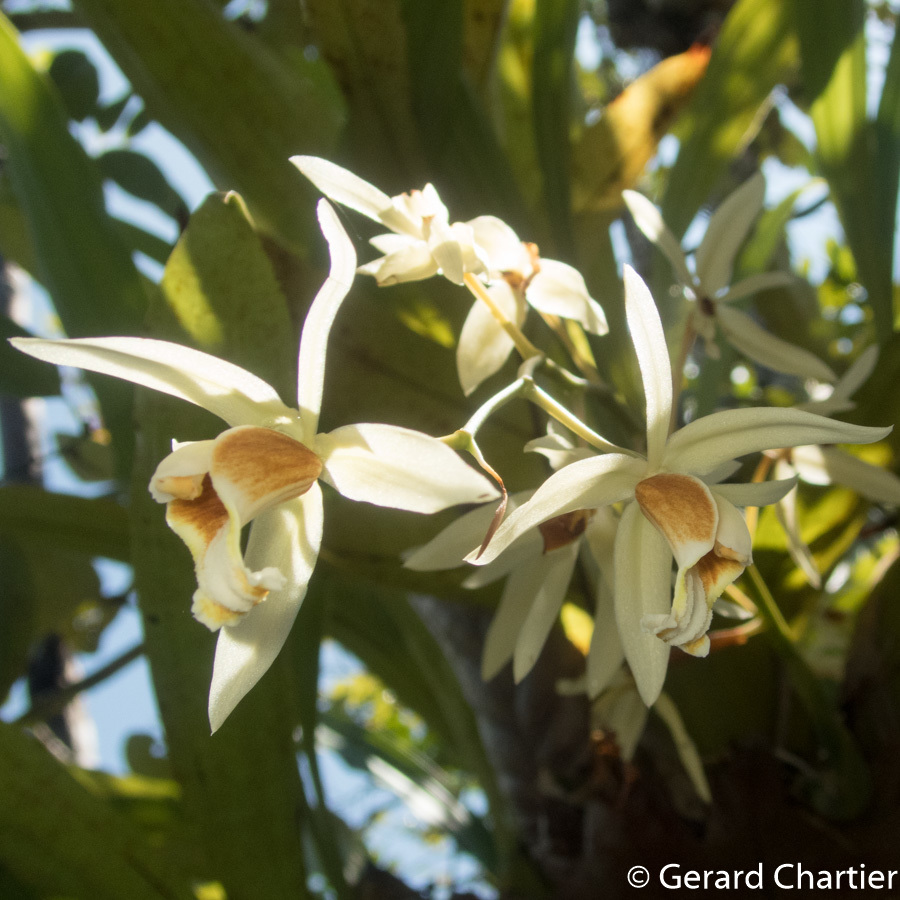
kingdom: Plantae
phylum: Tracheophyta
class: Liliopsida
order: Asparagales
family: Orchidaceae
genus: Coelogyne
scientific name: Coelogyne trinervis
